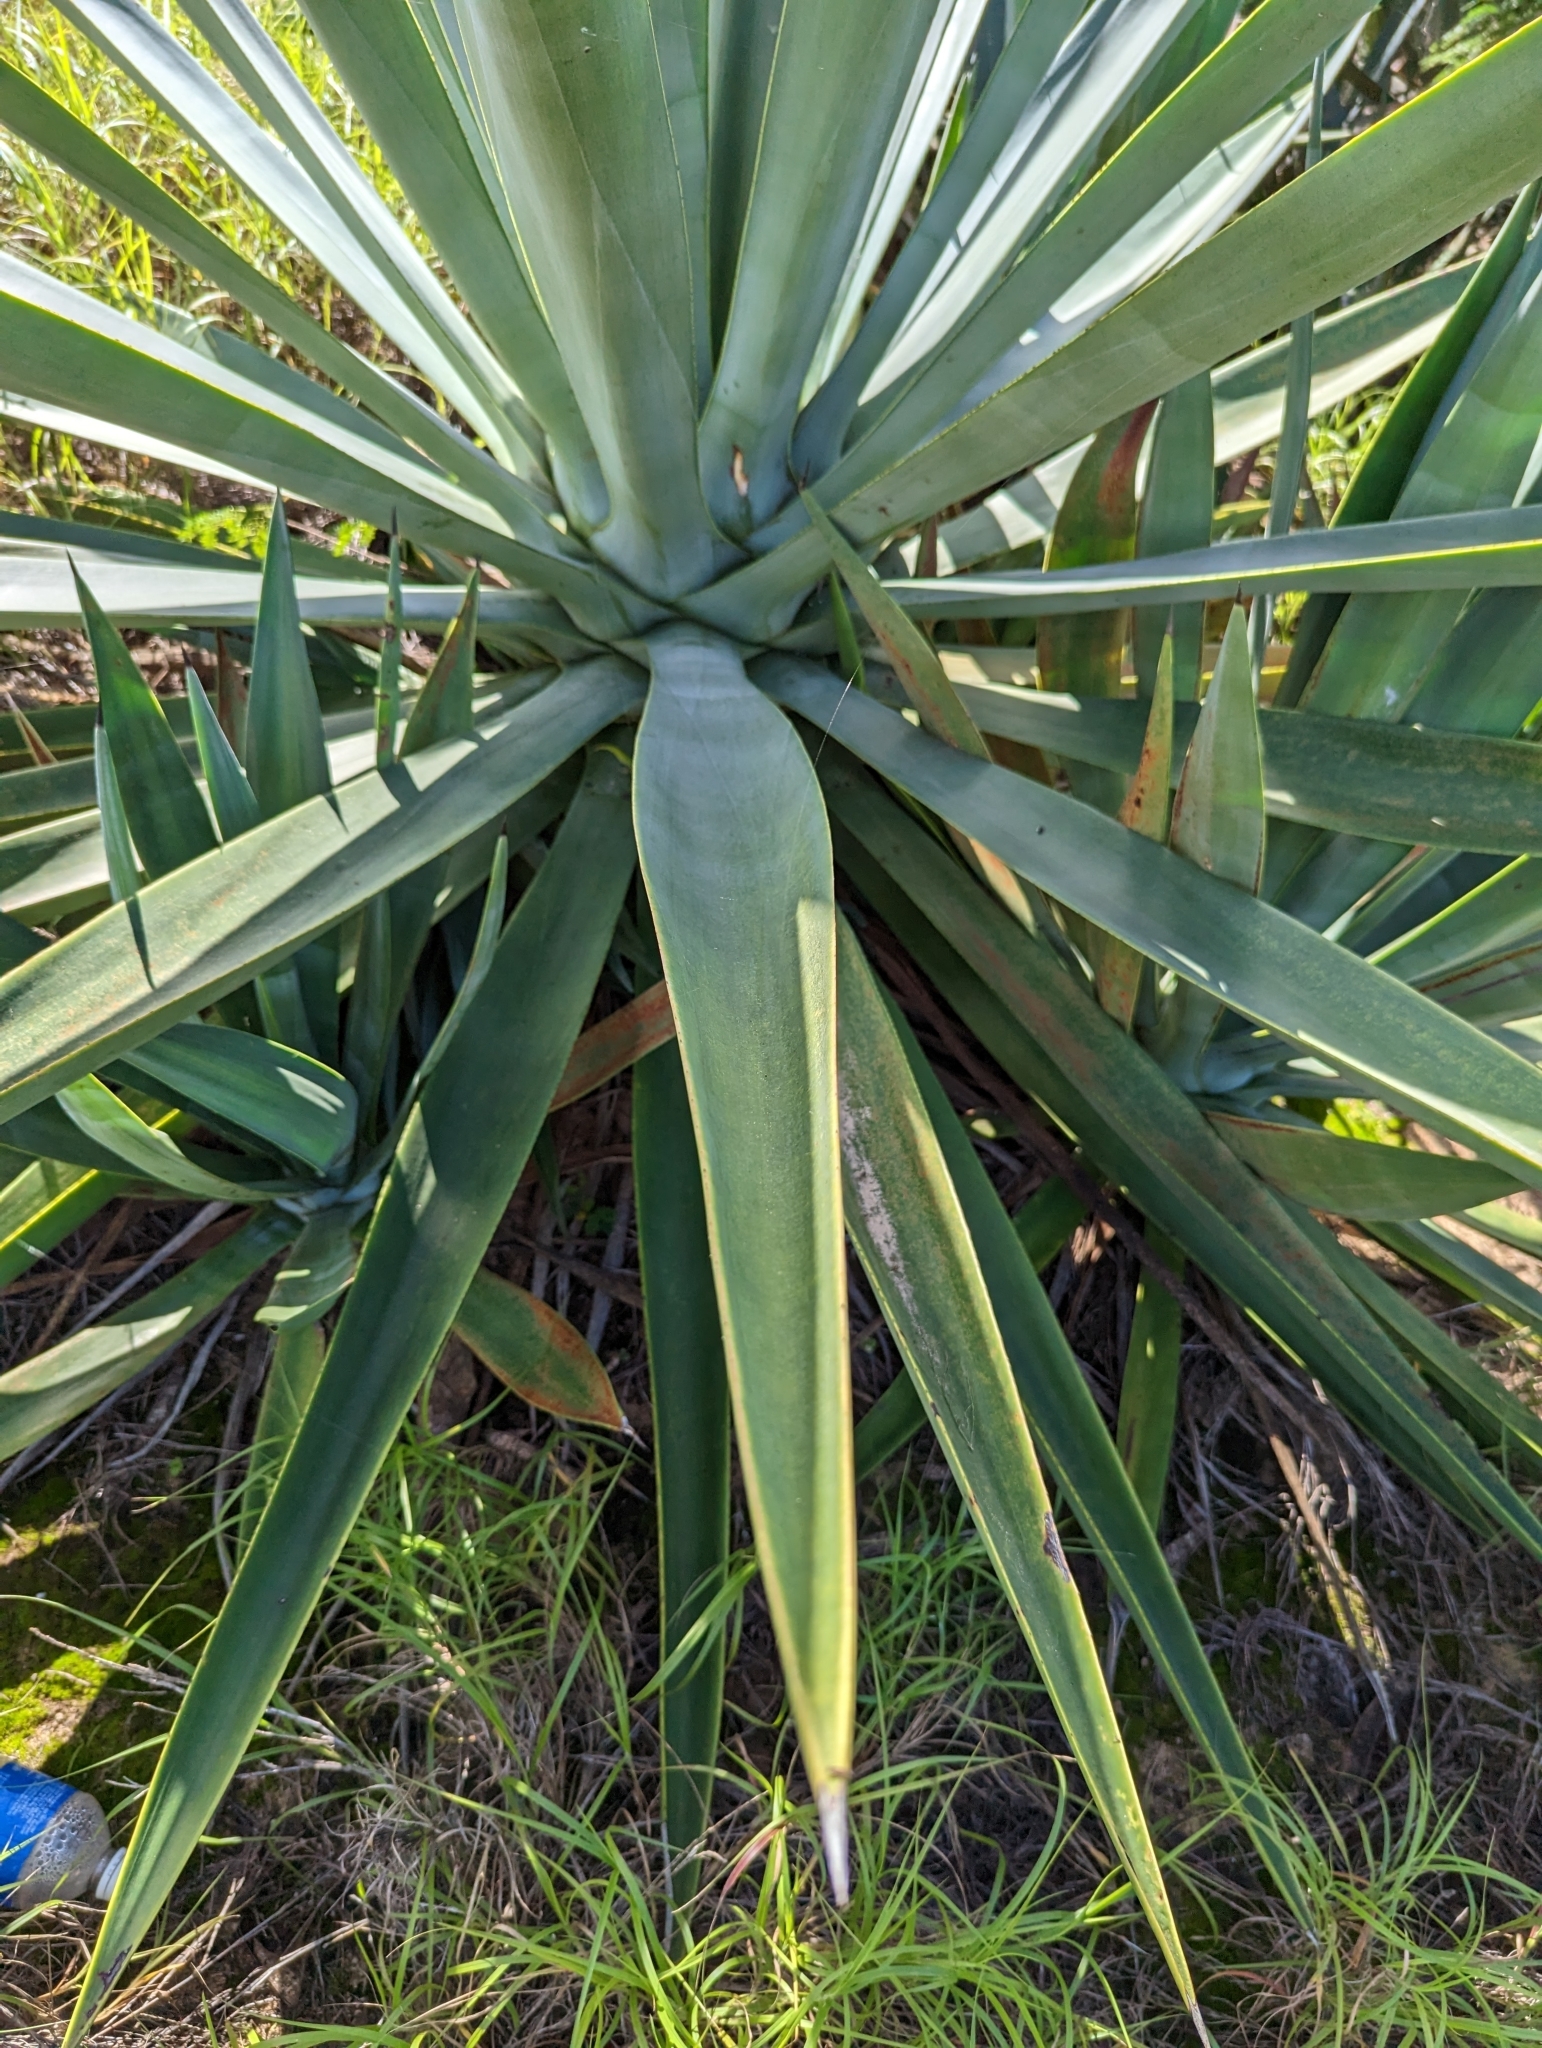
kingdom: Plantae
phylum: Tracheophyta
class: Liliopsida
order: Asparagales
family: Asparagaceae
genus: Agave
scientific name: Agave sisalana
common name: Sisal hemp
